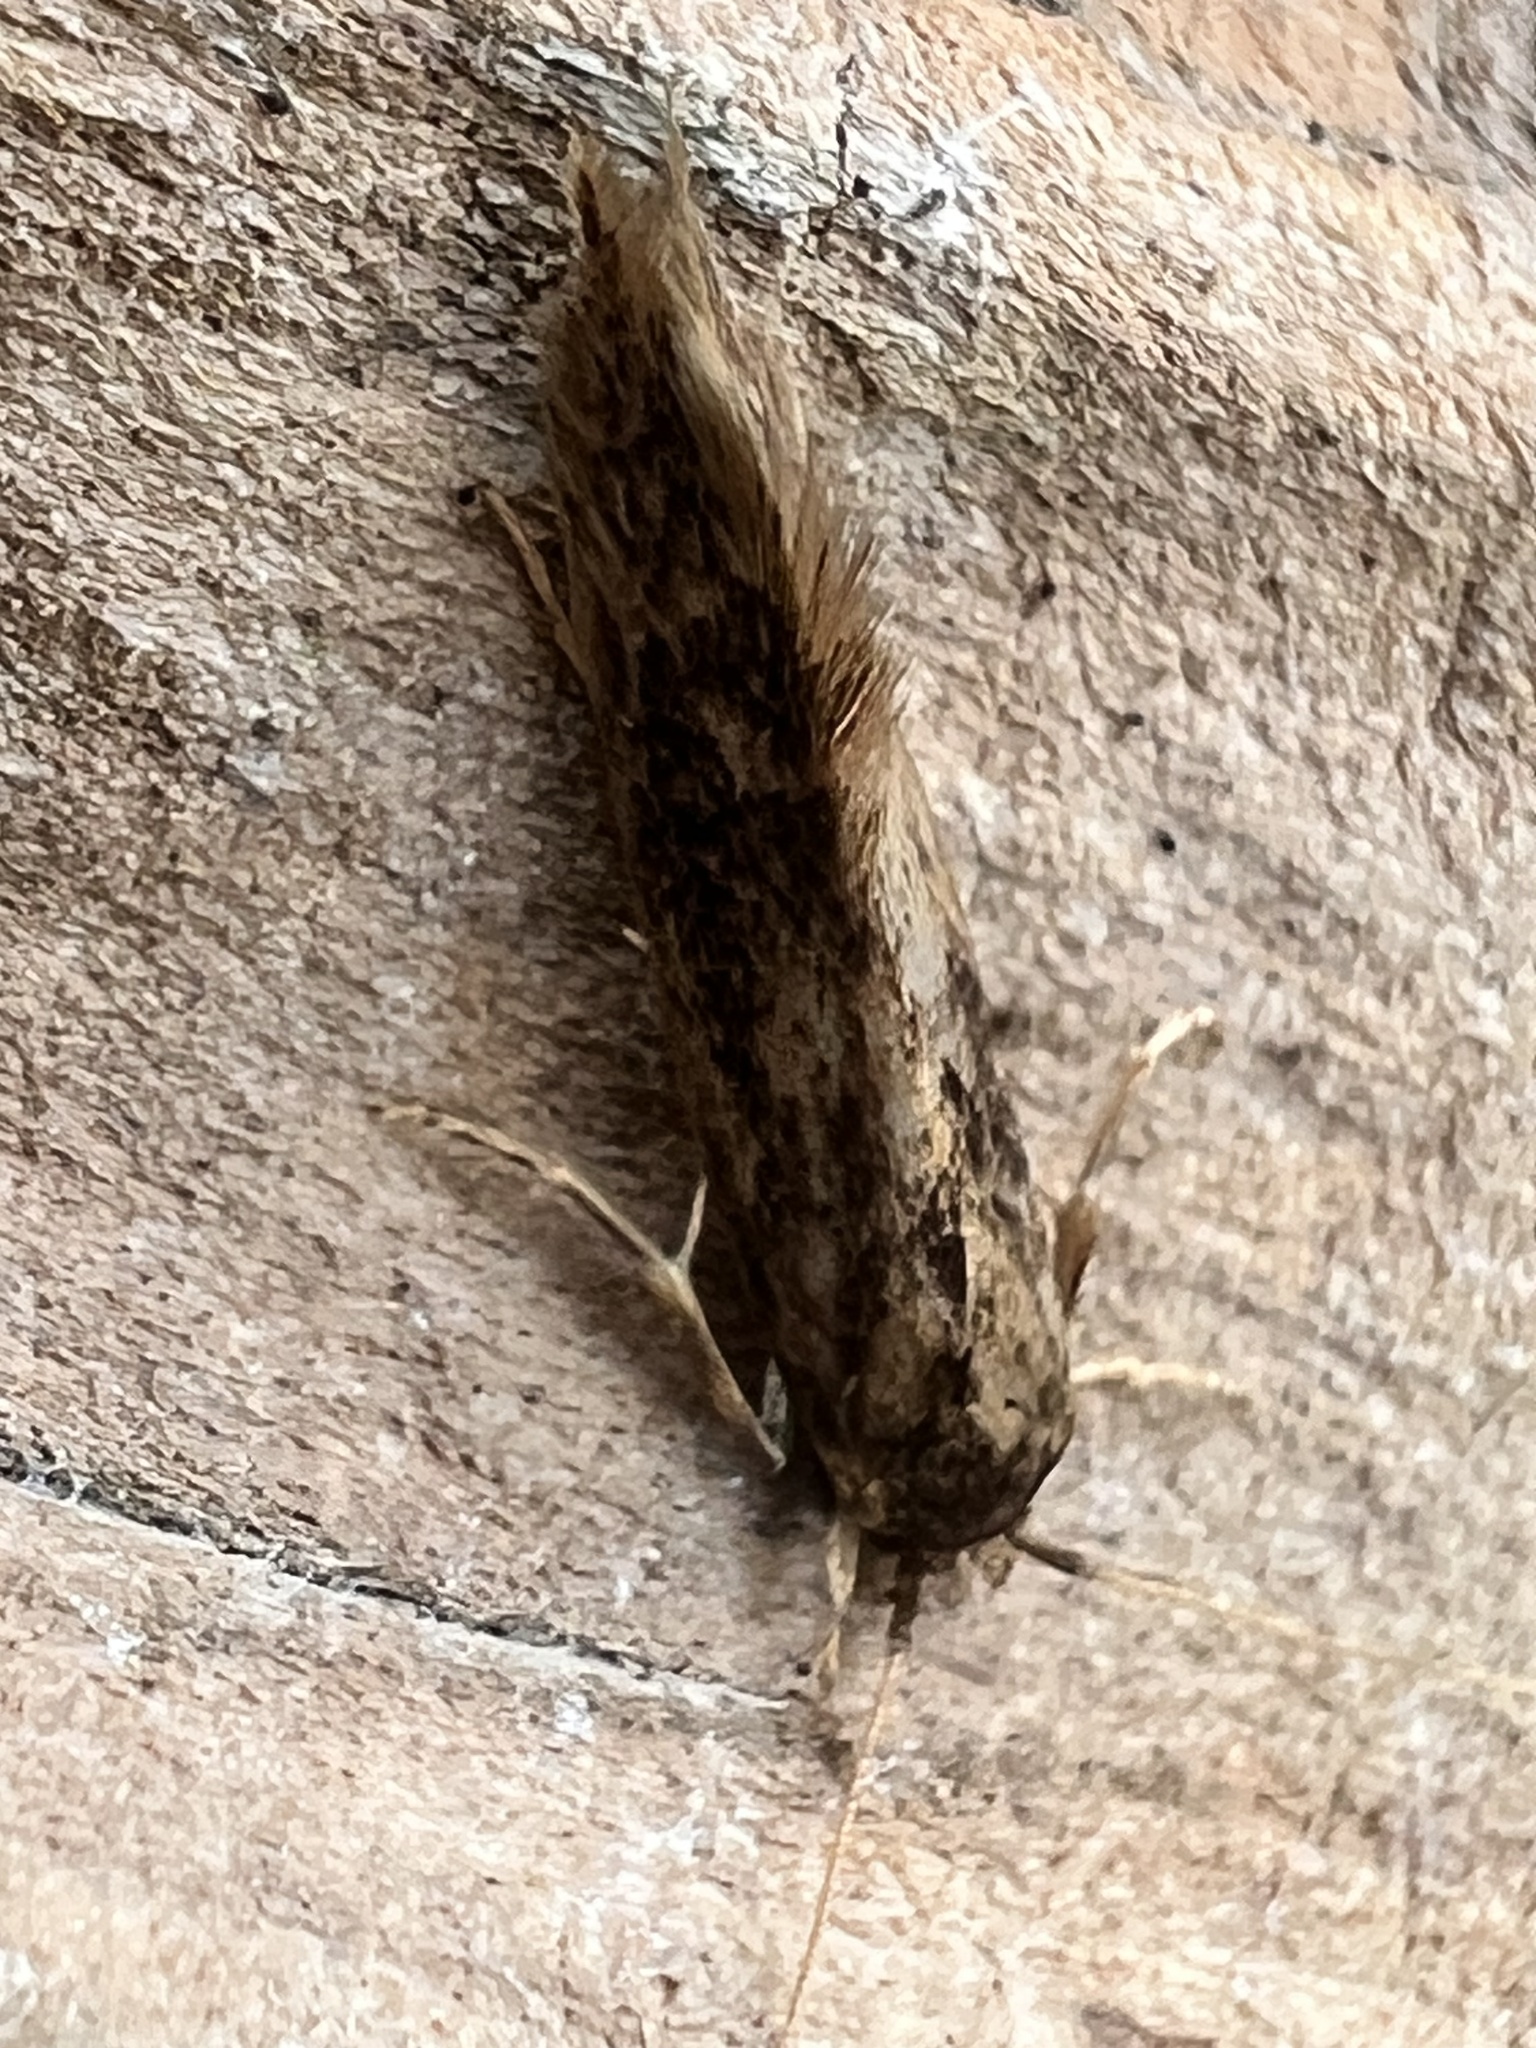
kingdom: Animalia
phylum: Arthropoda
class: Insecta
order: Lepidoptera
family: Tineidae
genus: Opogona
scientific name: Opogona omoscopa
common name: Moth
